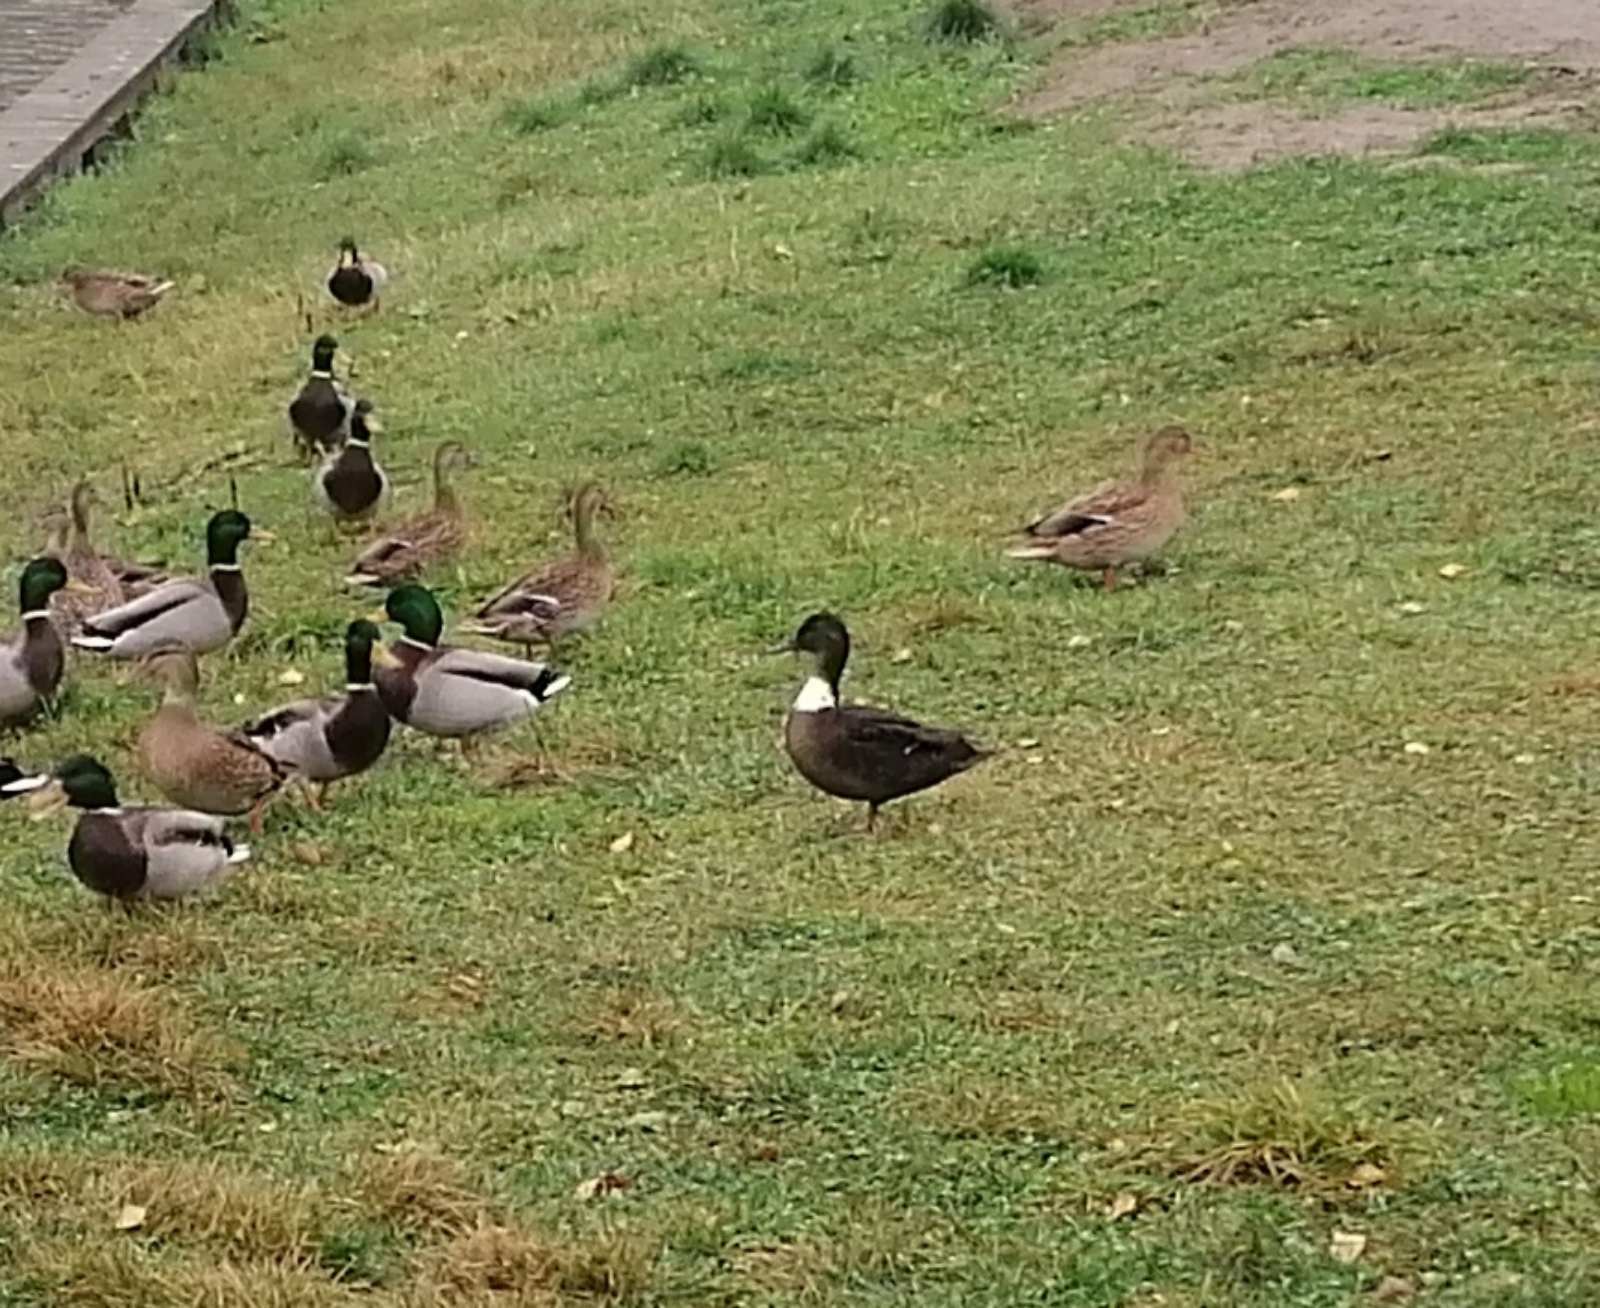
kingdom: Animalia
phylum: Chordata
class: Aves
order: Anseriformes
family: Anatidae
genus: Anas
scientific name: Anas platyrhynchos
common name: Mallard
